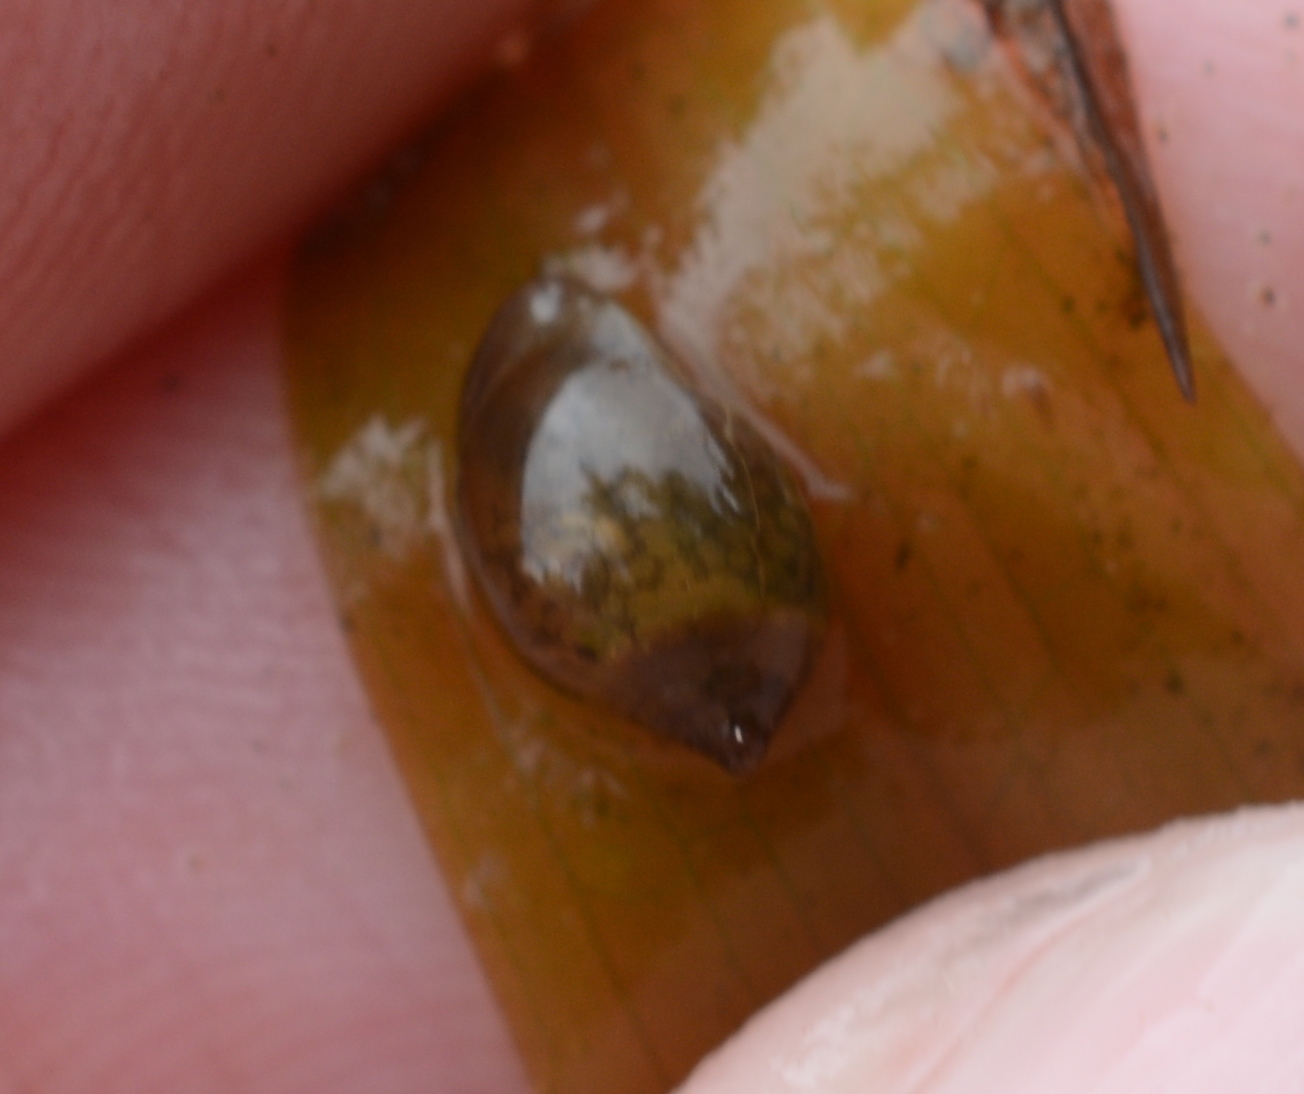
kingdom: Animalia
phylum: Mollusca
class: Gastropoda
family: Physidae
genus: Physella
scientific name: Physella acuta
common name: European physa
